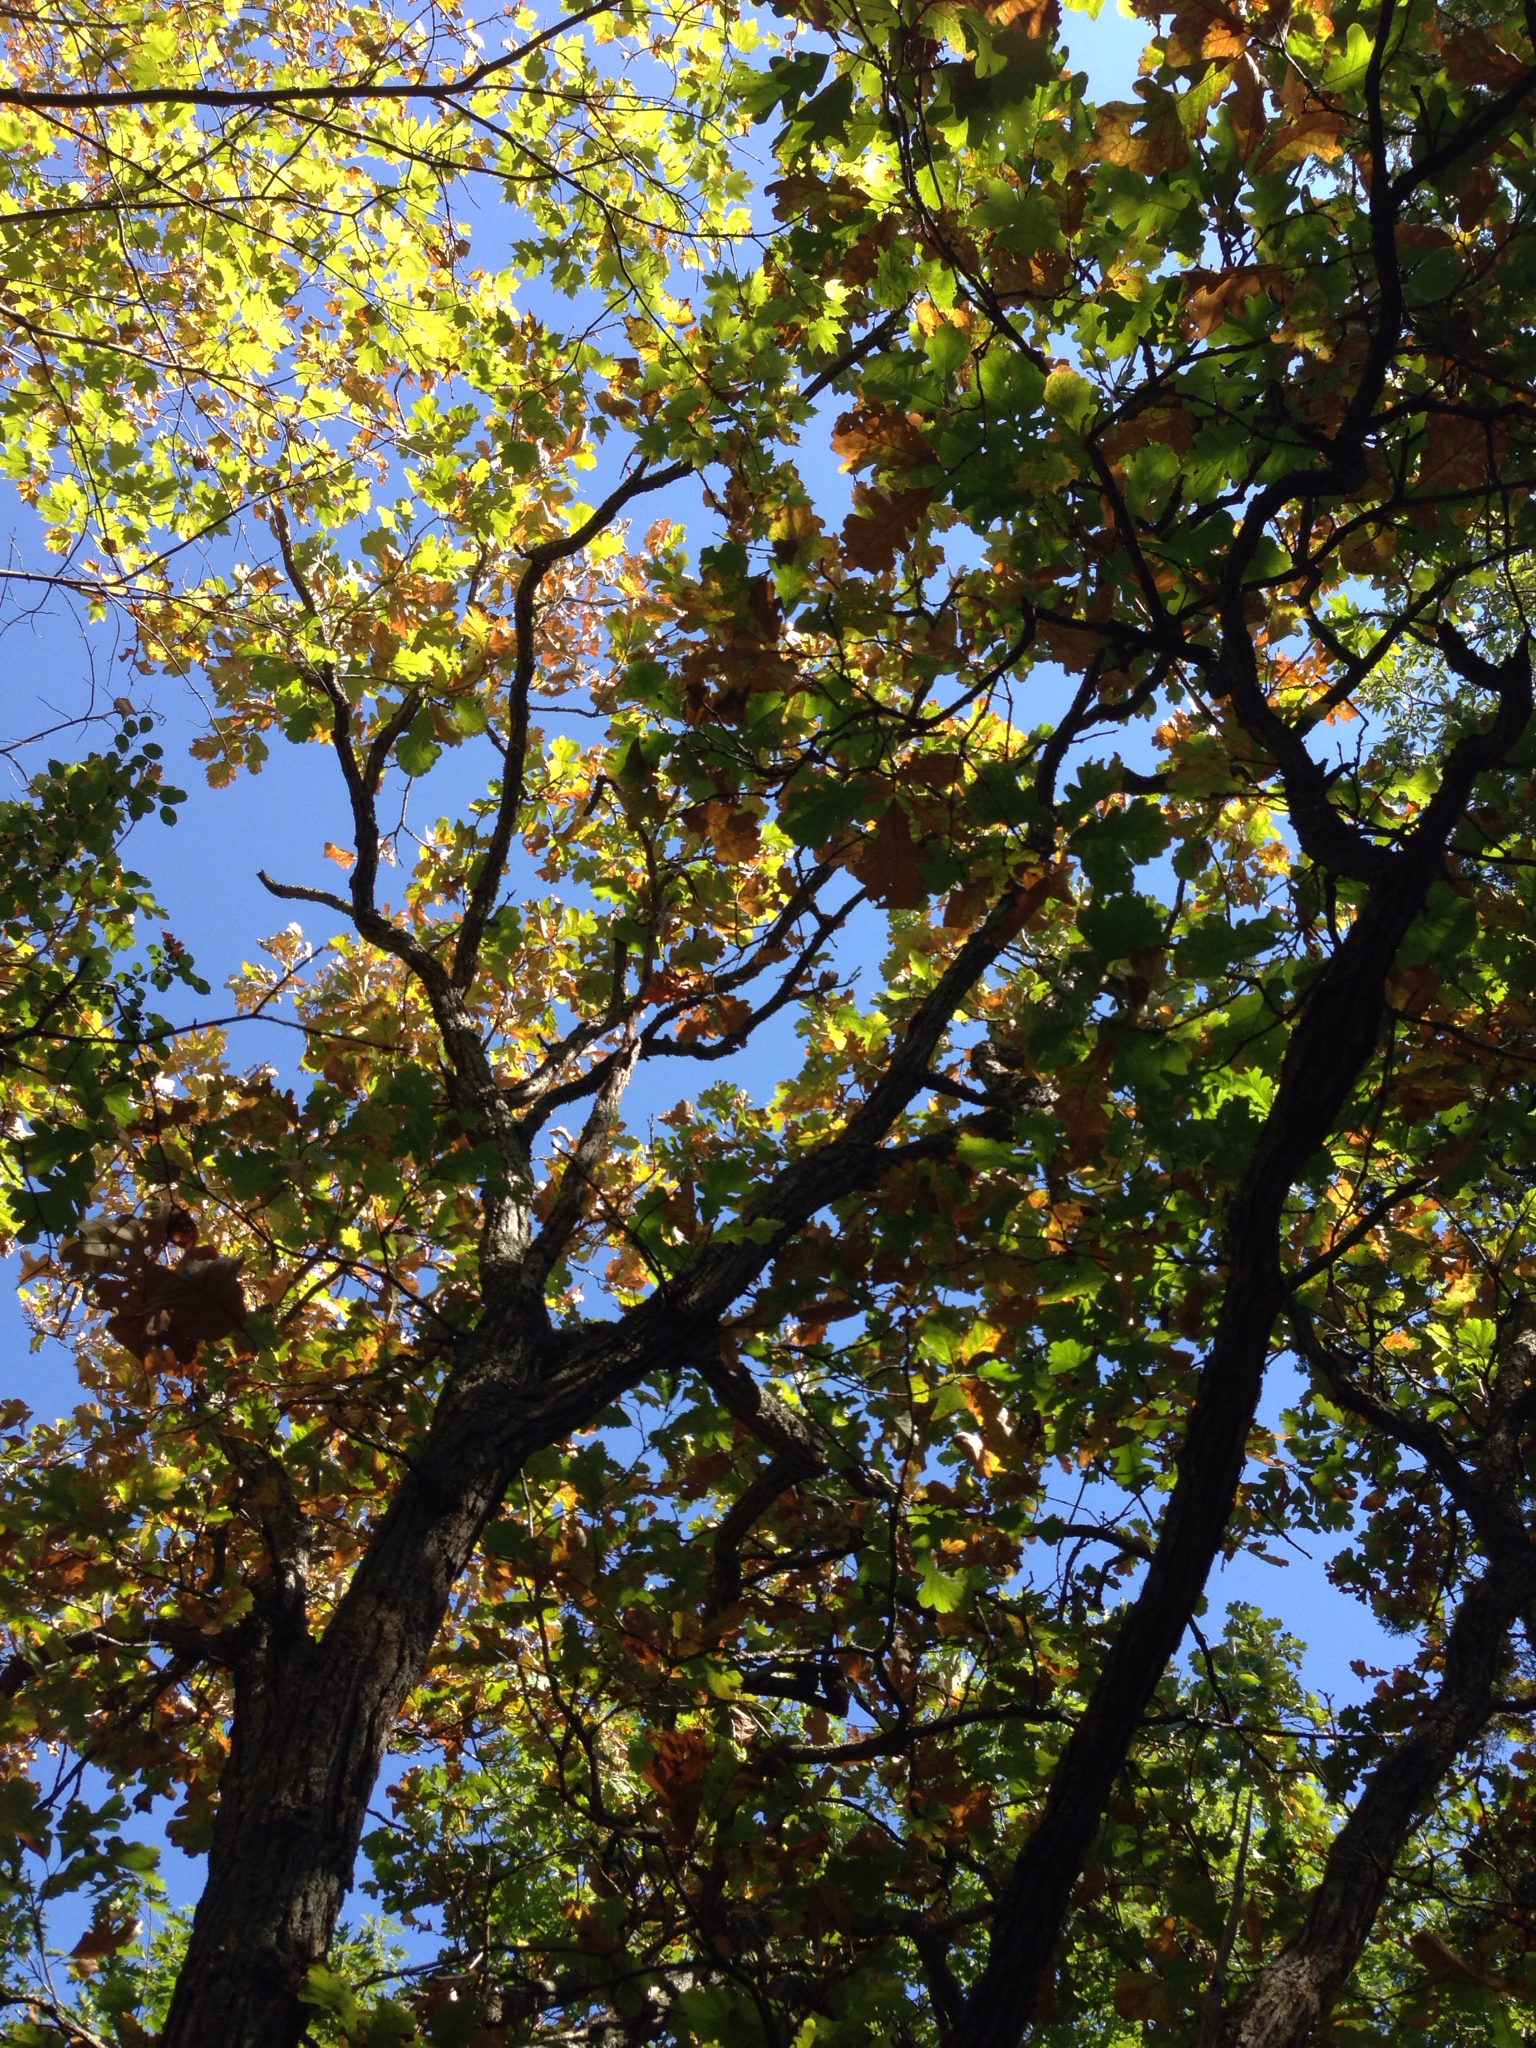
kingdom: Plantae
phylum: Tracheophyta
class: Magnoliopsida
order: Fagales
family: Fagaceae
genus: Quercus
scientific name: Quercus macrocarpa
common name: Bur oak
